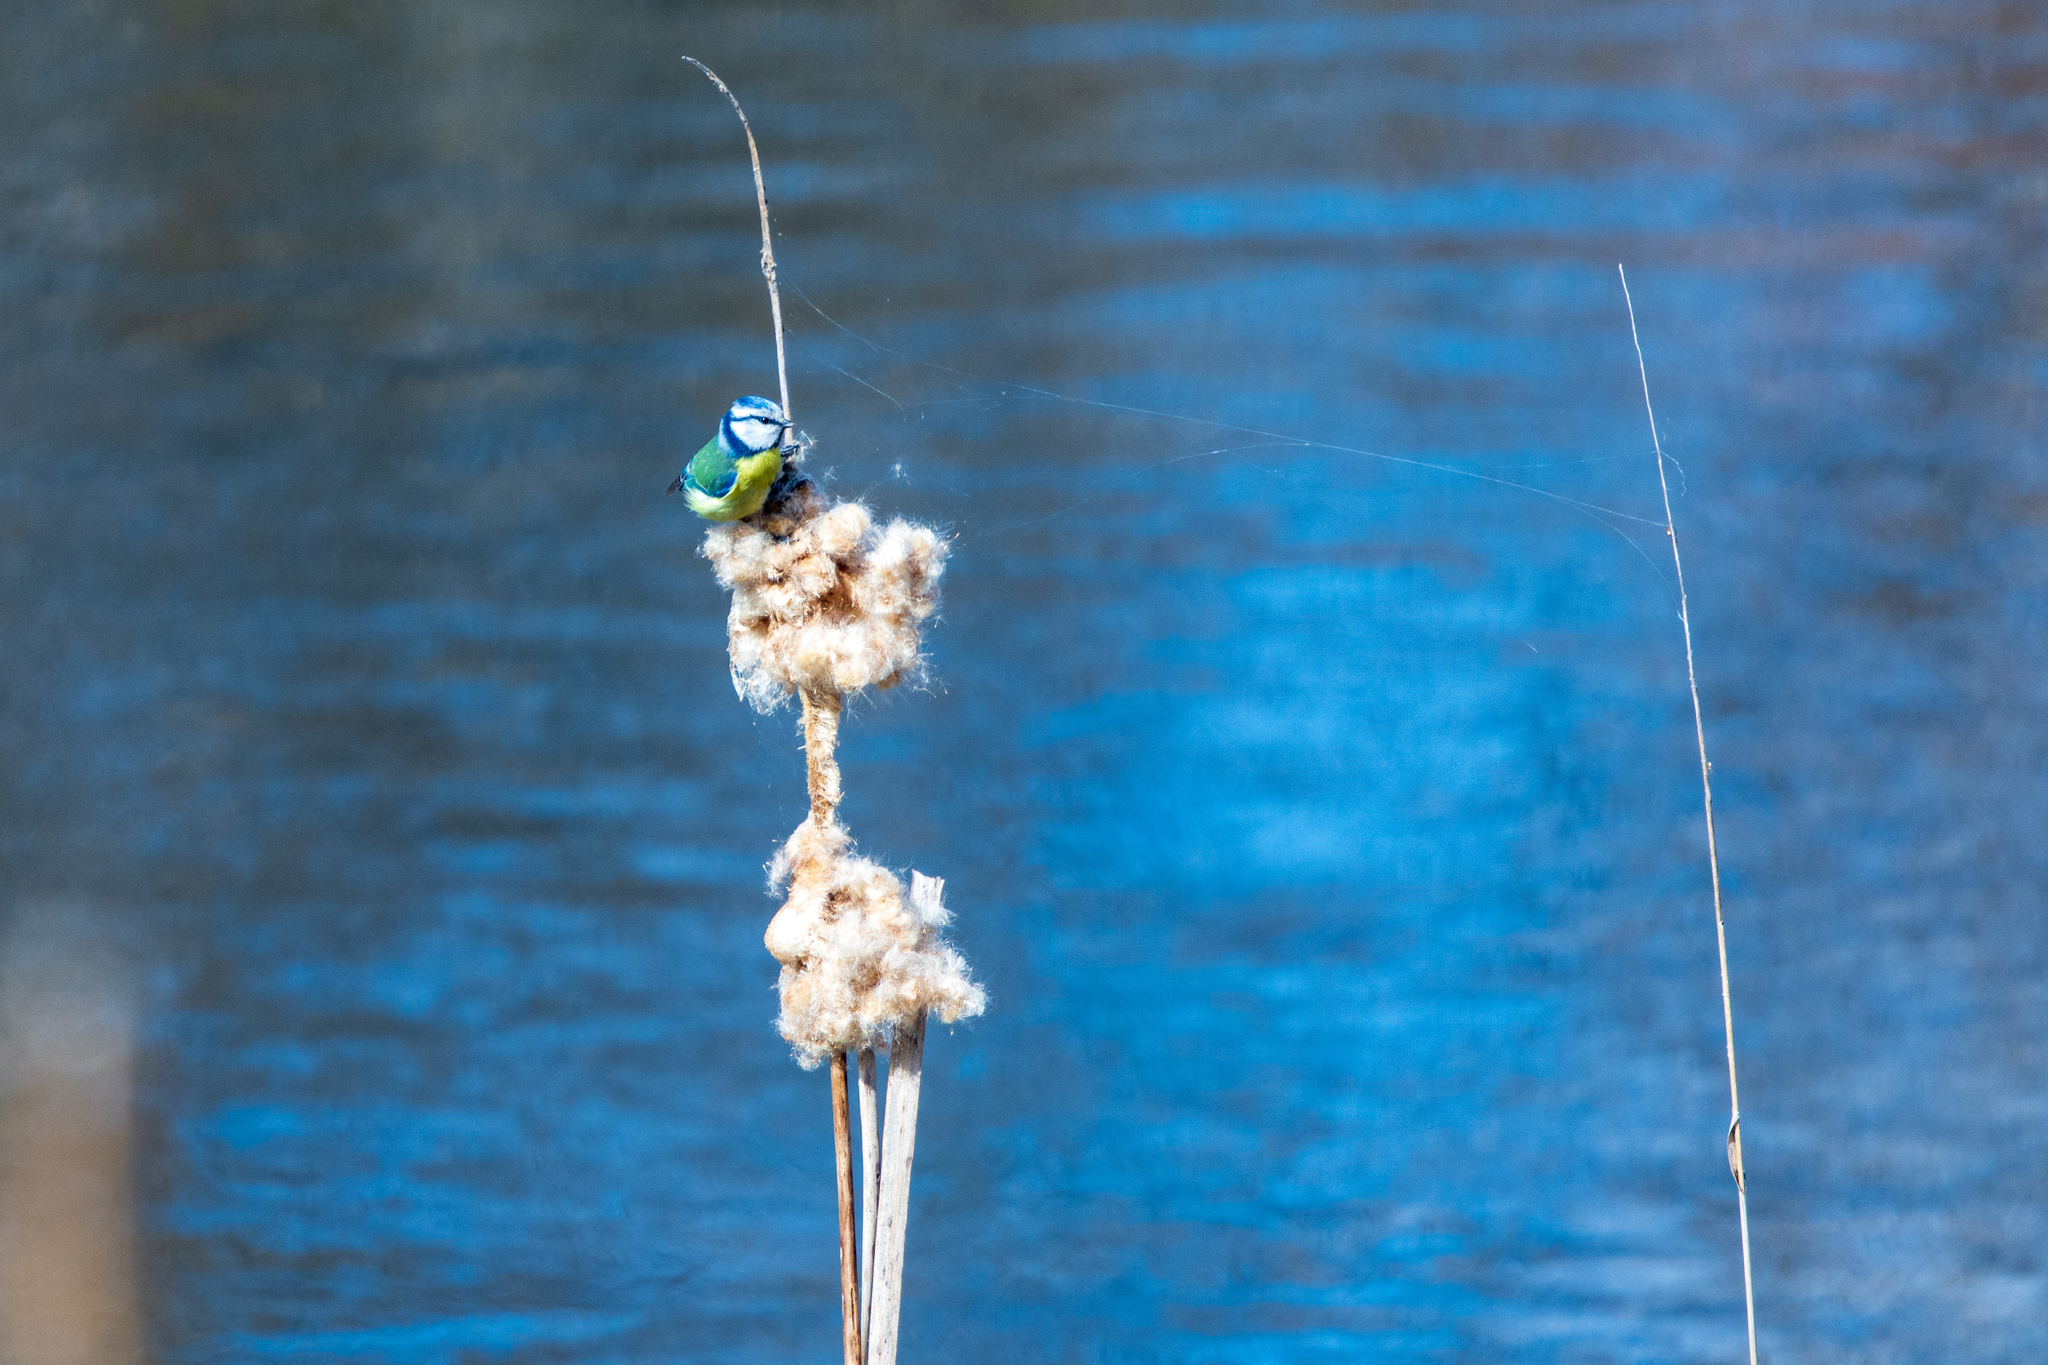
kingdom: Animalia
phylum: Chordata
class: Aves
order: Passeriformes
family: Paridae
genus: Cyanistes
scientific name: Cyanistes caeruleus
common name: Eurasian blue tit
